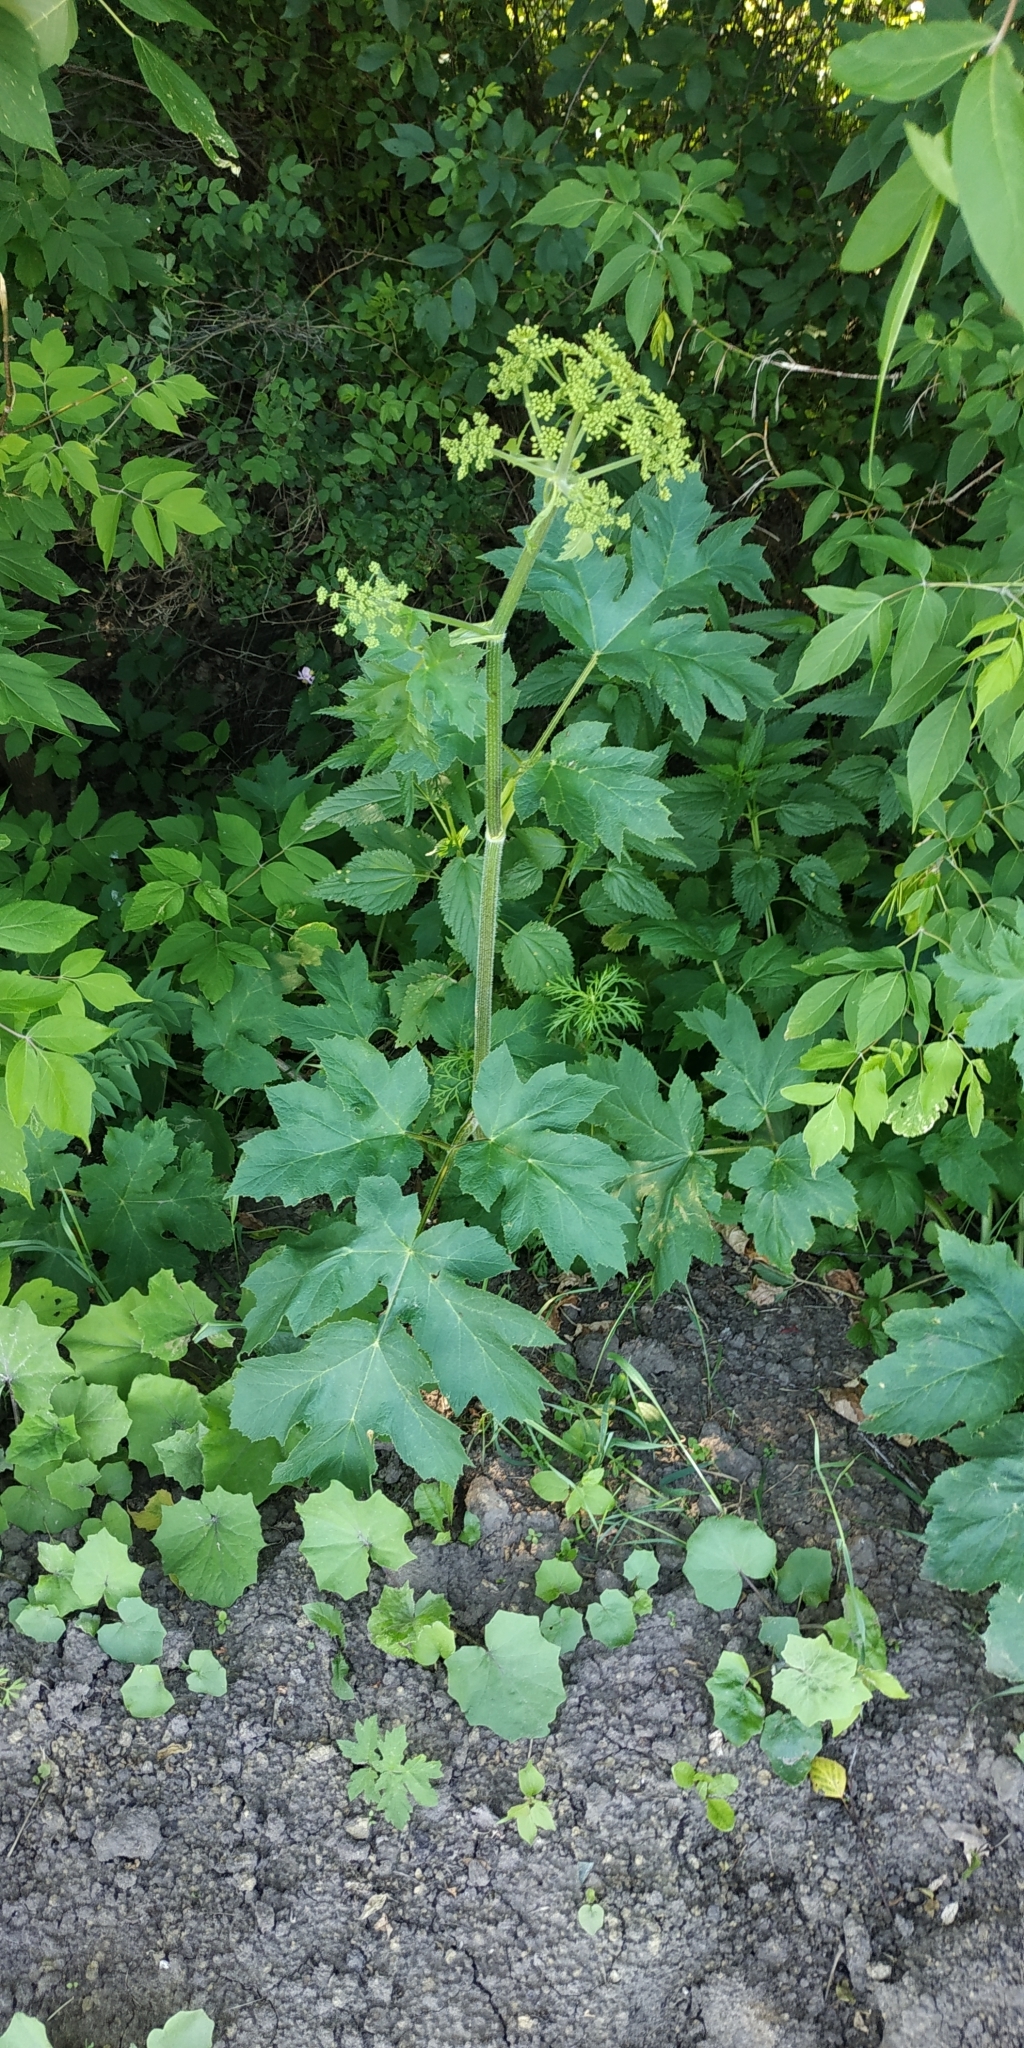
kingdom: Plantae
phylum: Tracheophyta
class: Magnoliopsida
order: Apiales
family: Apiaceae
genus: Heracleum
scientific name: Heracleum sphondylium
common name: Hogweed
